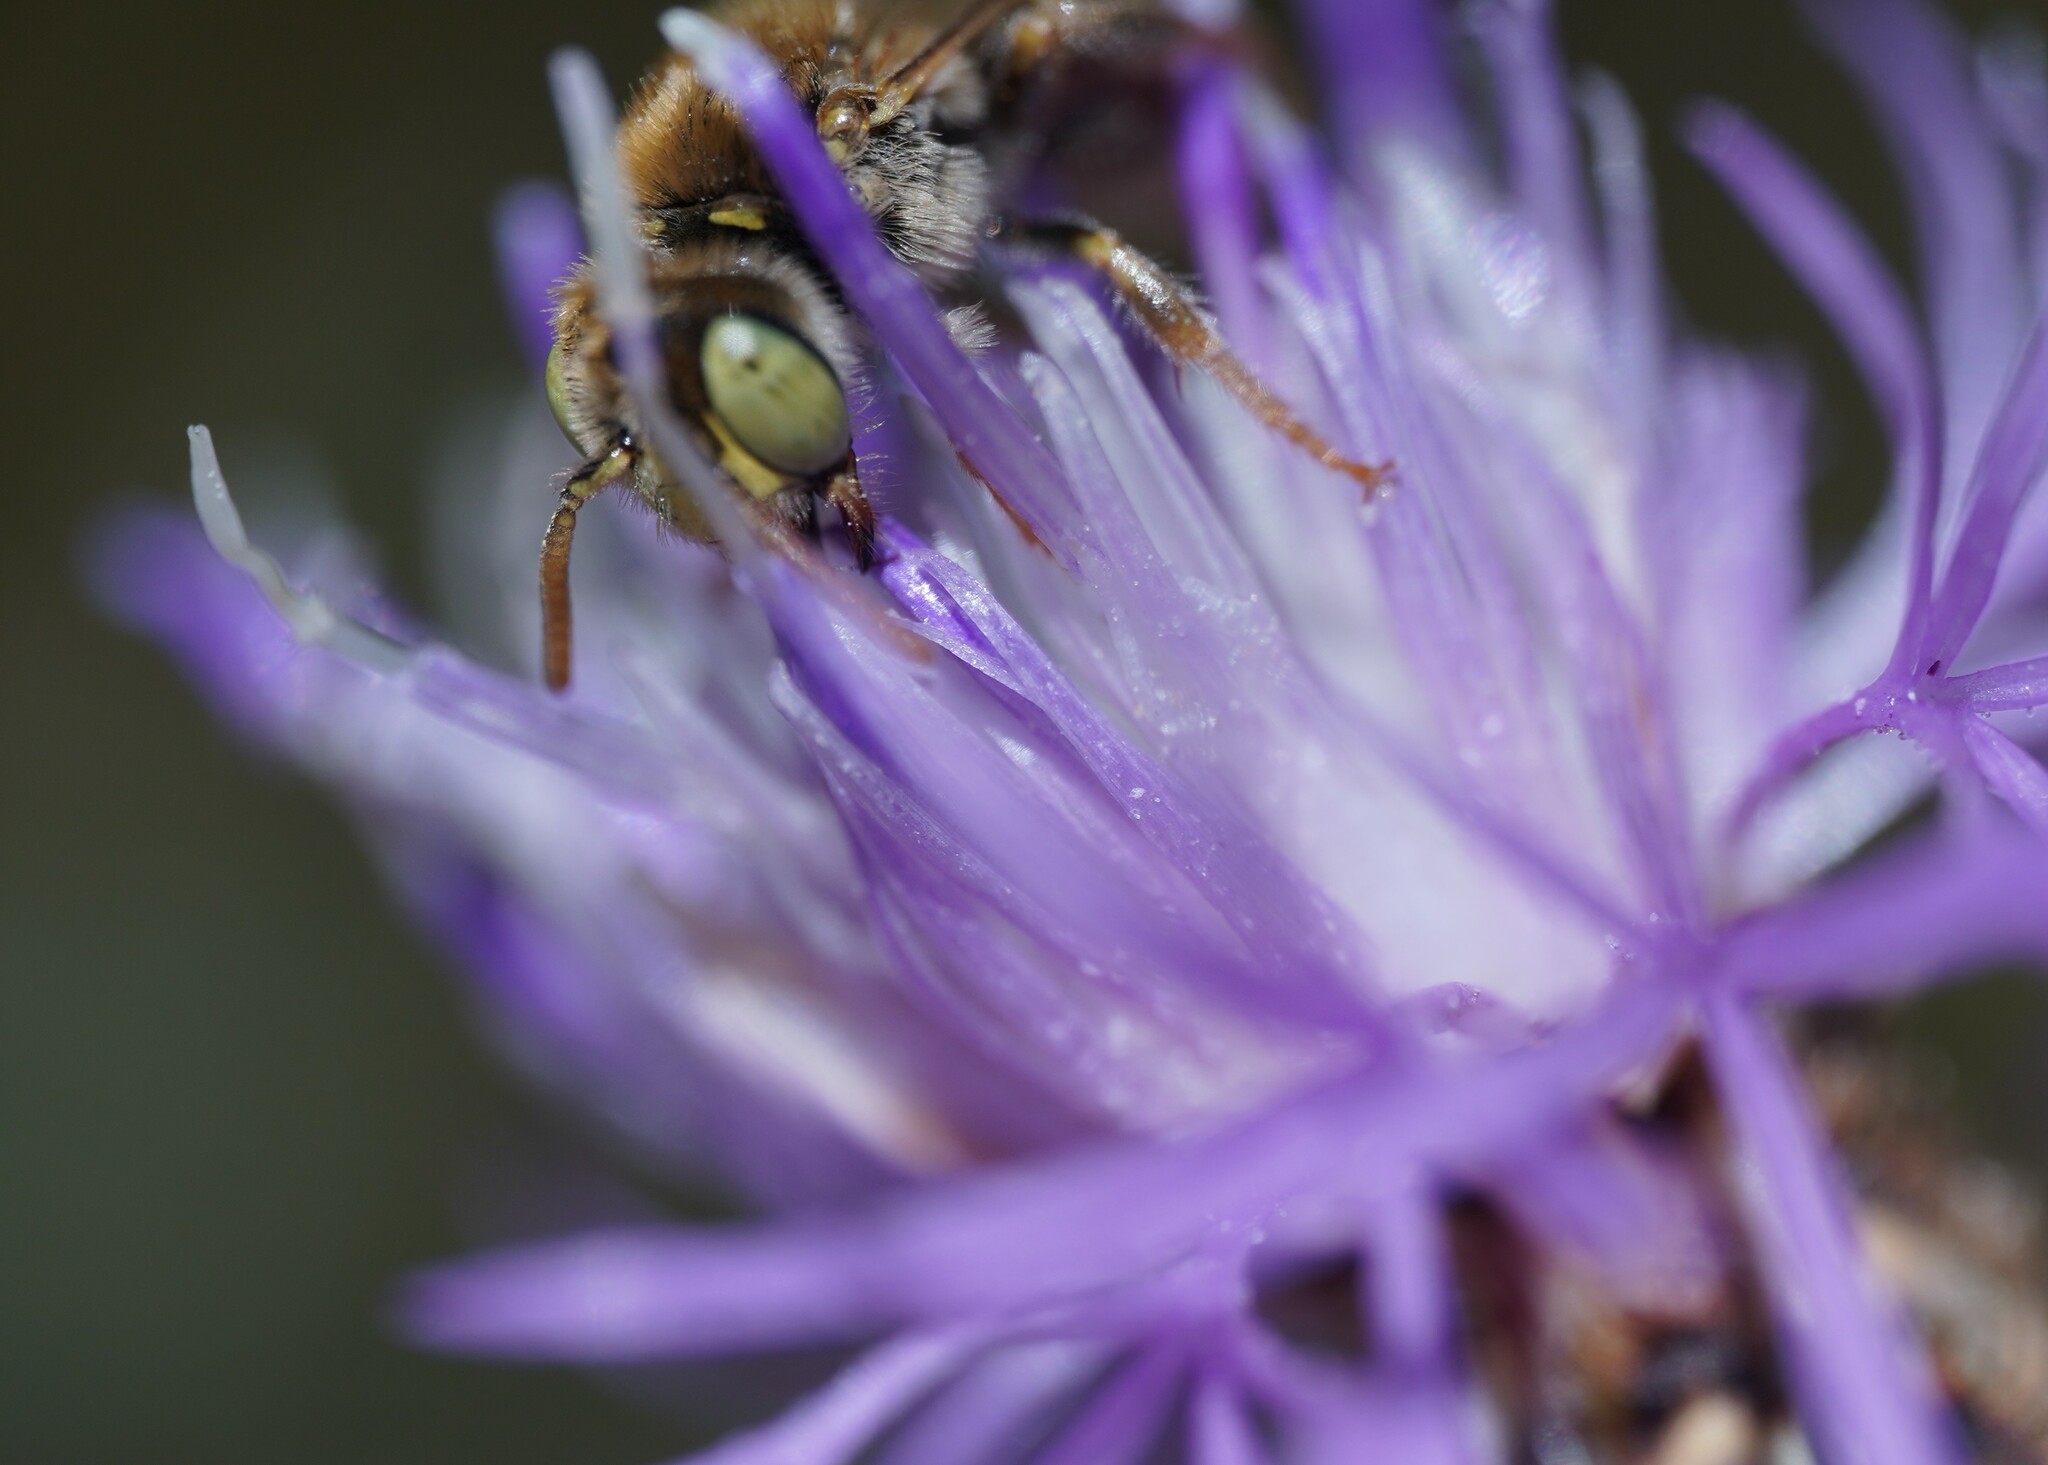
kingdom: Animalia
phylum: Arthropoda
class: Insecta
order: Hymenoptera
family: Andrenidae
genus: Camptopoeum
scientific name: Camptopoeum friesei
